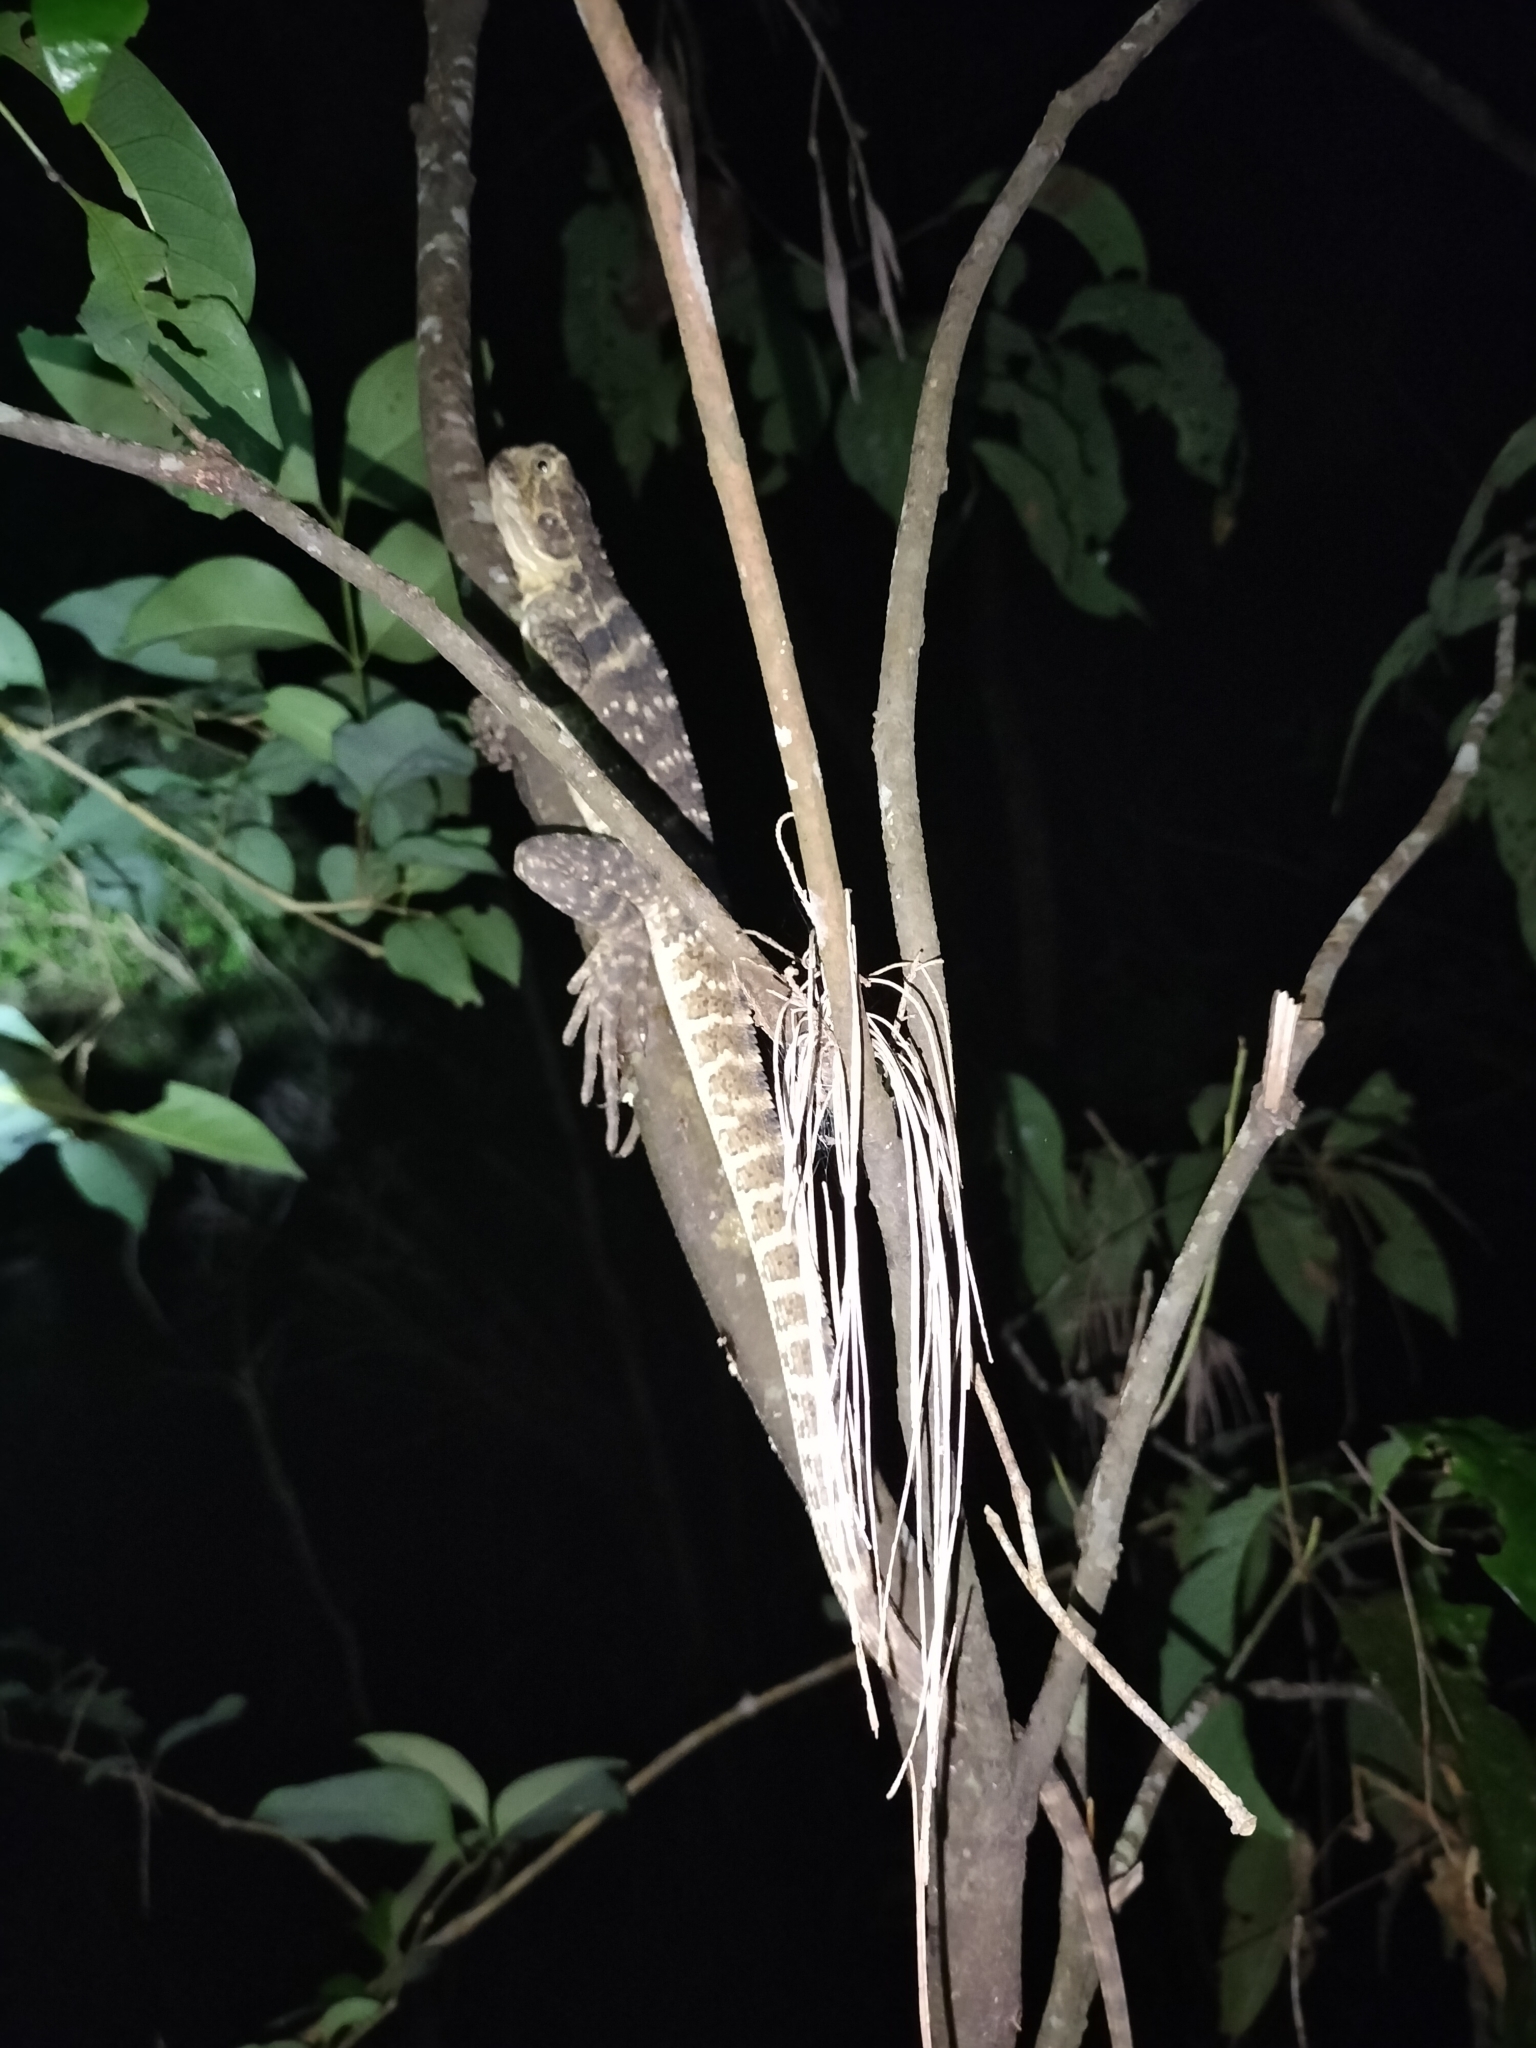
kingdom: Animalia
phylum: Chordata
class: Squamata
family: Agamidae
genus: Intellagama
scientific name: Intellagama lesueurii
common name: Eastern water dragon
